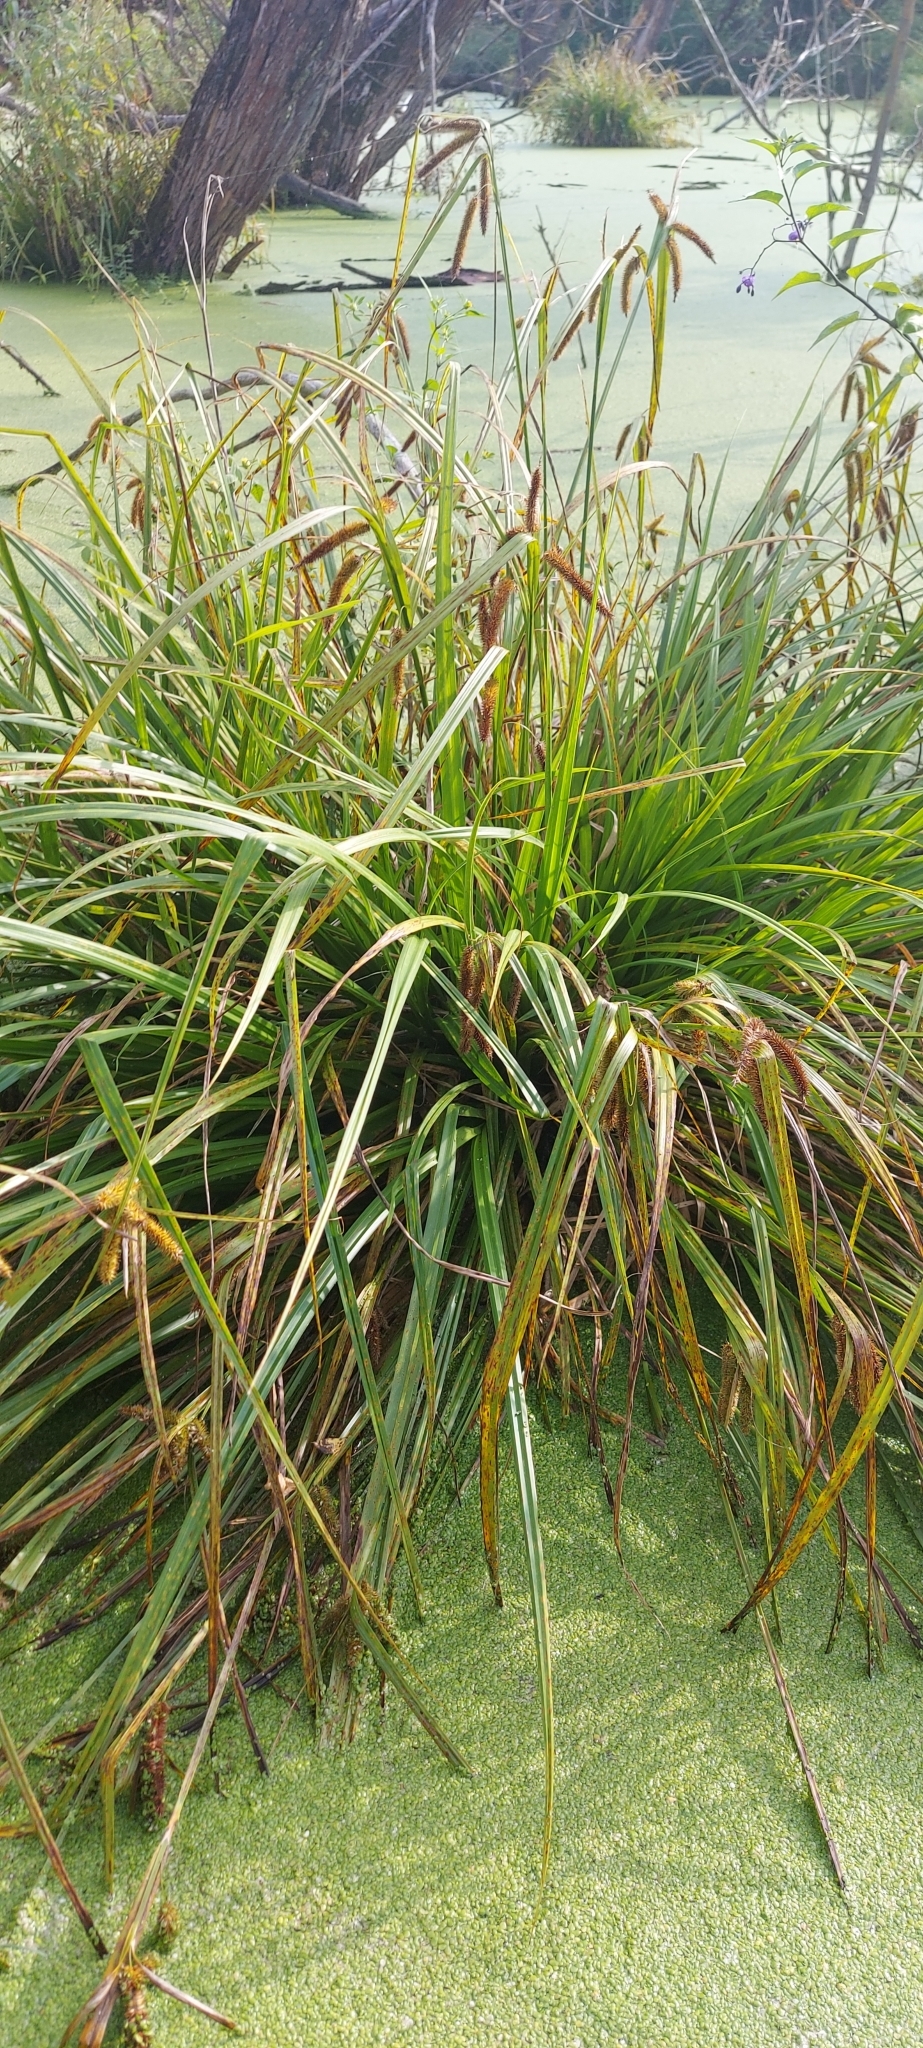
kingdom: Plantae
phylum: Tracheophyta
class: Liliopsida
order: Poales
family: Cyperaceae
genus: Carex
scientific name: Carex pseudocyperus
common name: Cyperus sedge
